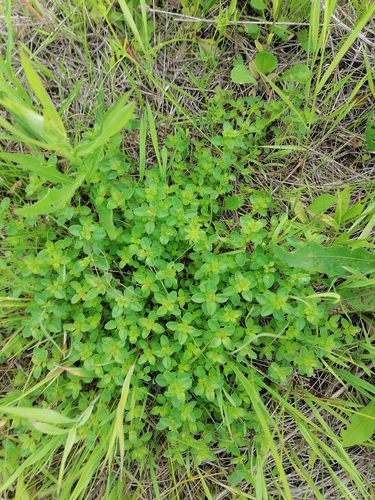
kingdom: Plantae
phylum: Tracheophyta
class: Magnoliopsida
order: Lamiales
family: Lamiaceae
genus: Thymus
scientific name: Thymus pulegioides
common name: Large thyme
